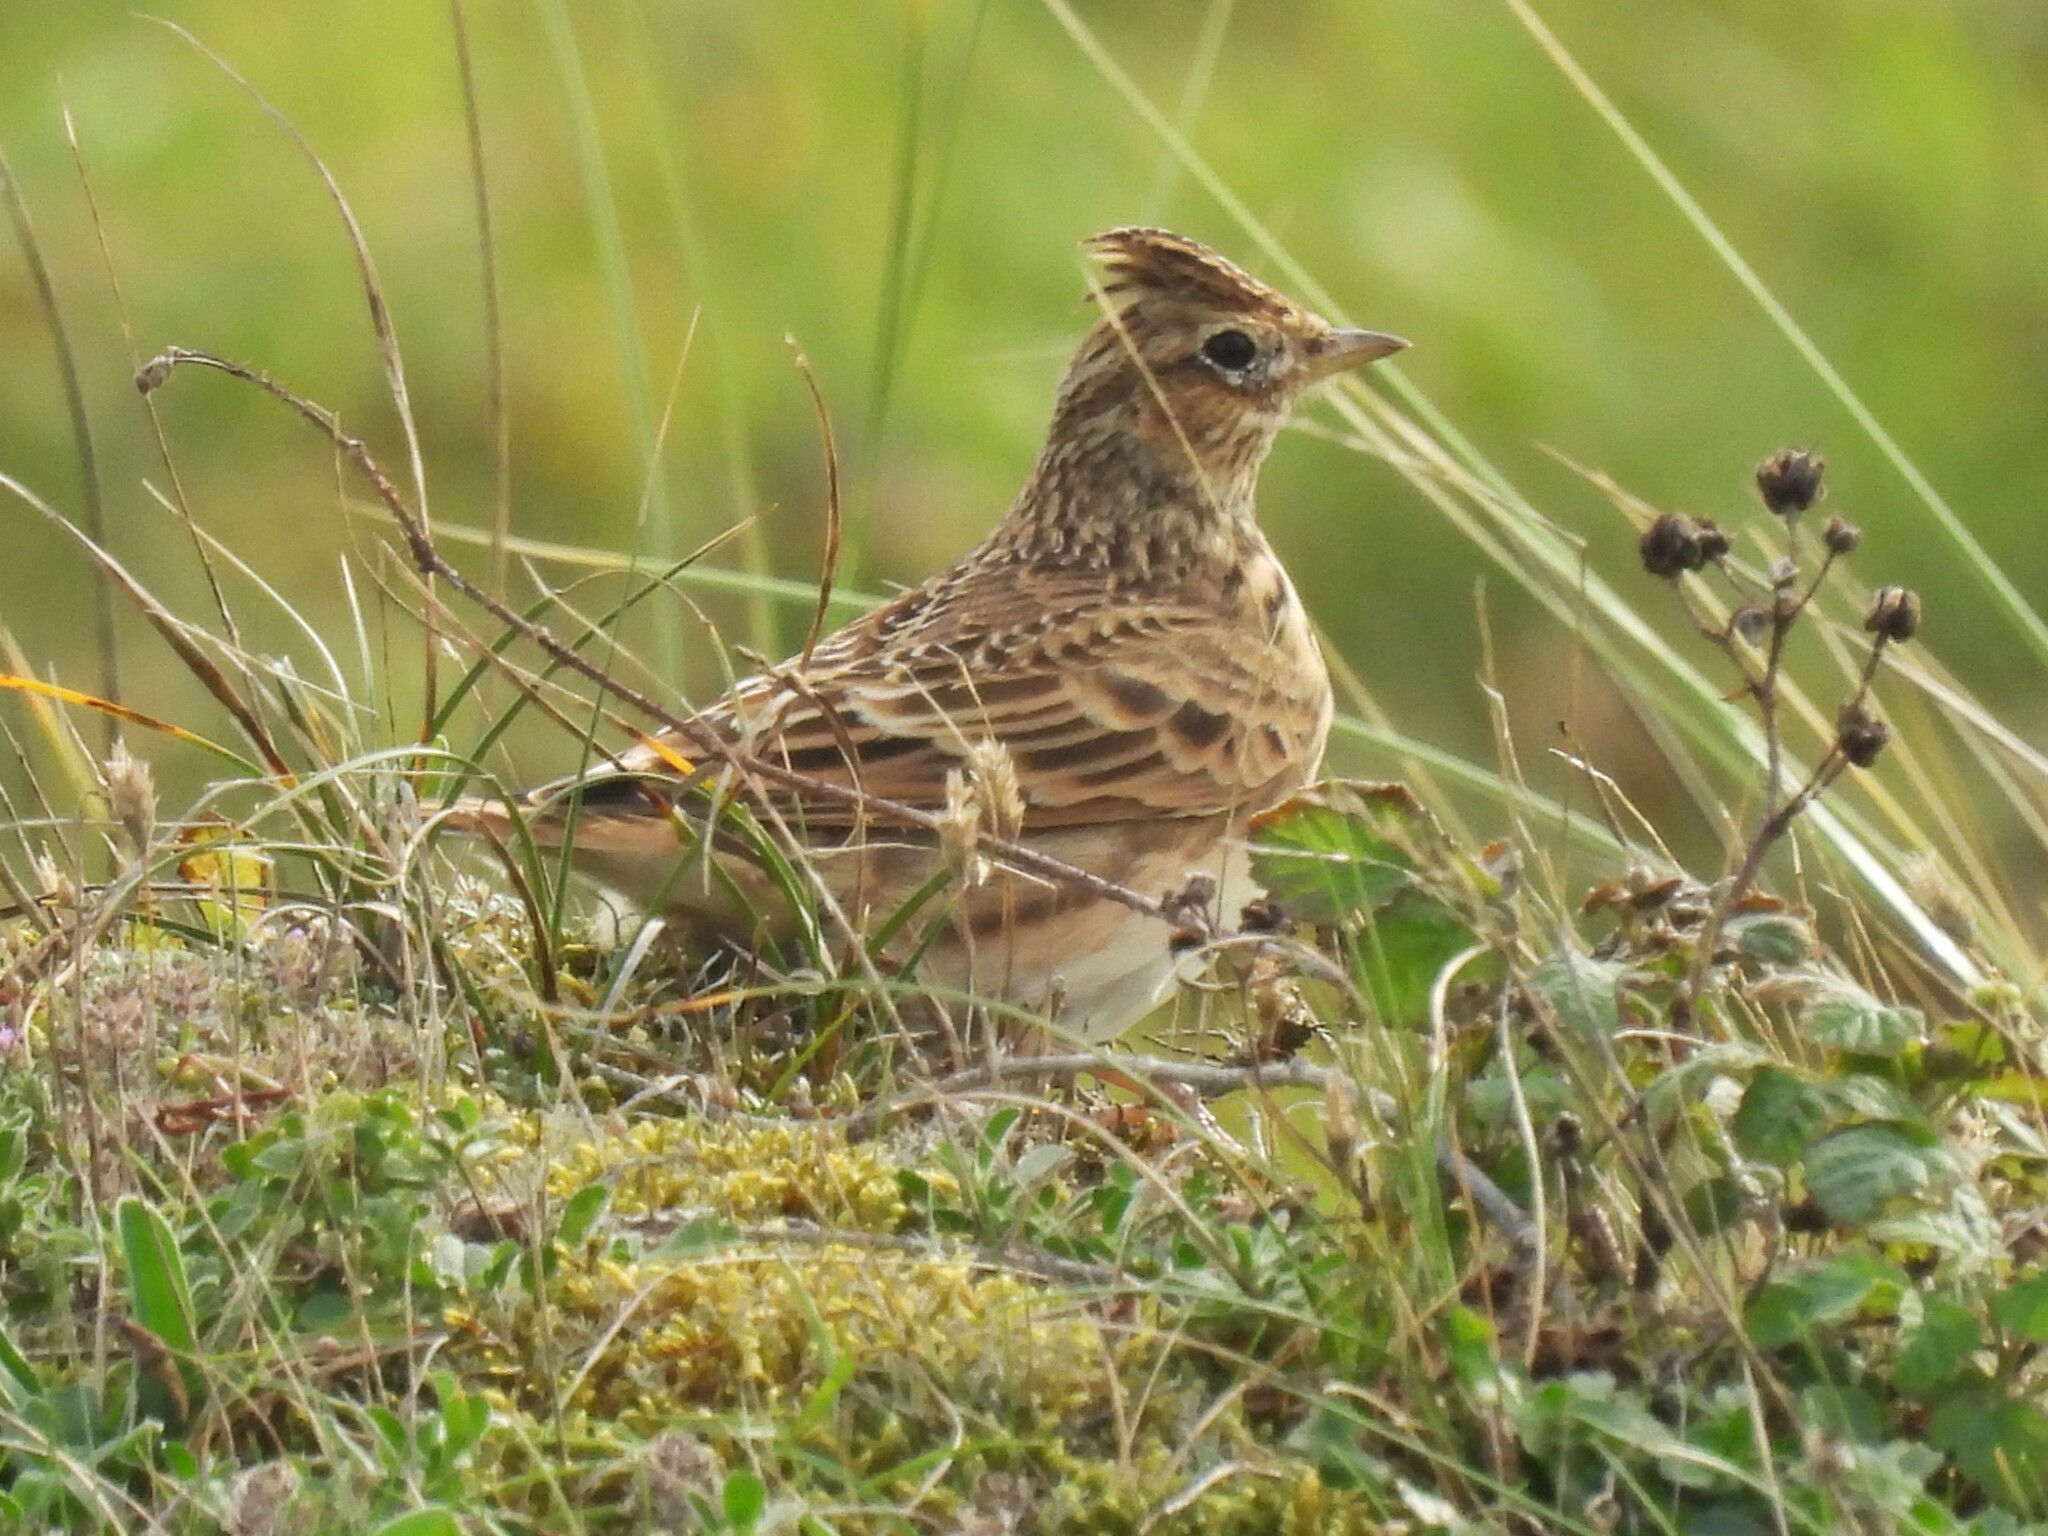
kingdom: Animalia
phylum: Chordata
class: Aves
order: Passeriformes
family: Alaudidae
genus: Alauda
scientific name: Alauda arvensis
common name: Eurasian skylark
